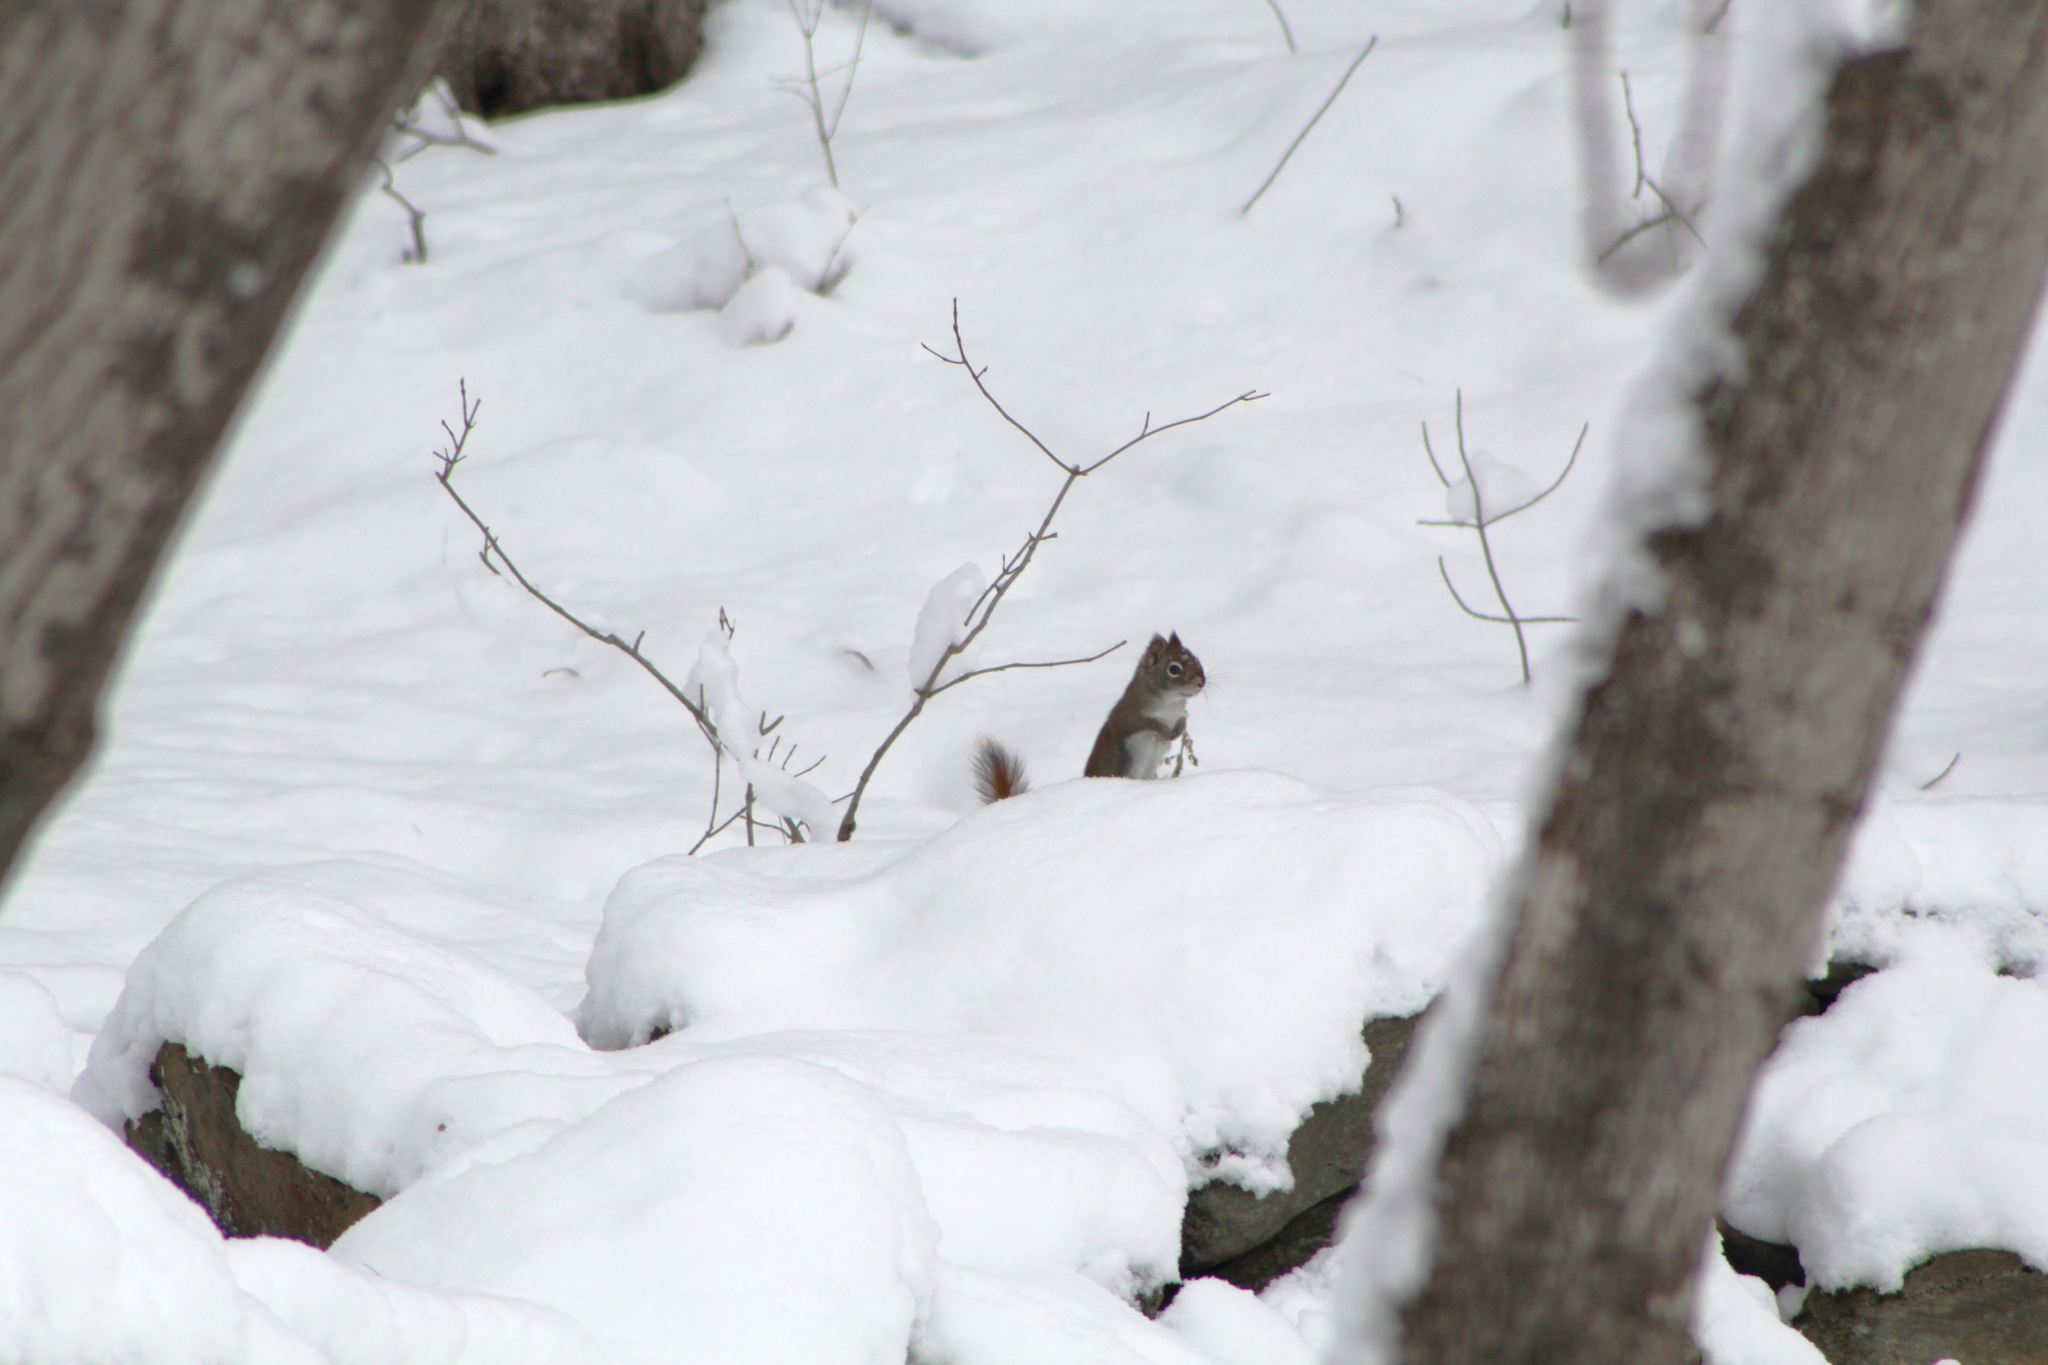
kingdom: Animalia
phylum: Chordata
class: Mammalia
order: Rodentia
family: Sciuridae
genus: Tamiasciurus
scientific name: Tamiasciurus hudsonicus
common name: Red squirrel
